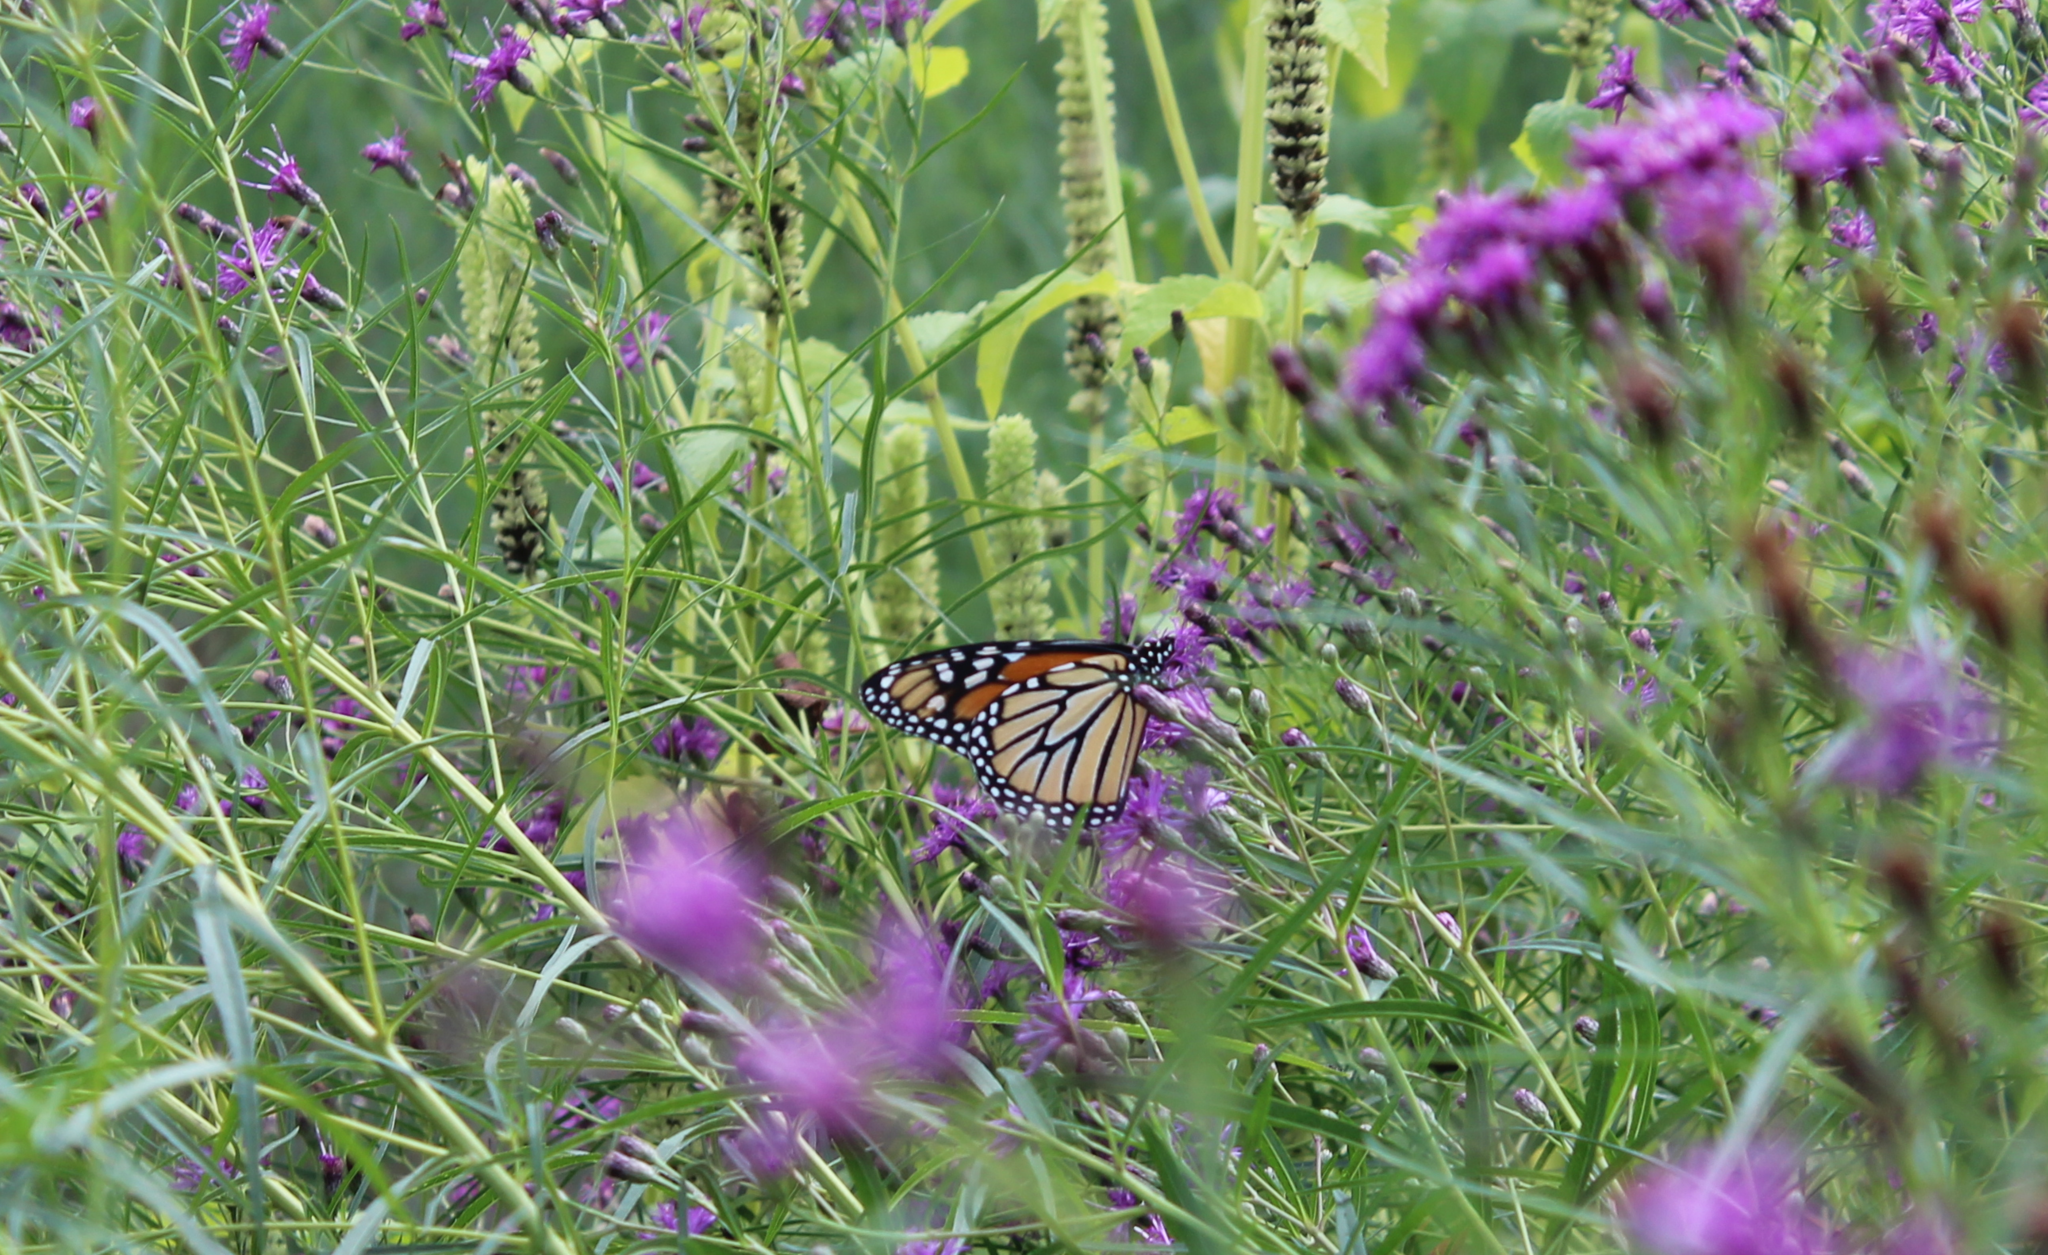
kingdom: Animalia
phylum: Arthropoda
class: Insecta
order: Lepidoptera
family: Nymphalidae
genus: Danaus
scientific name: Danaus plexippus
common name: Monarch
